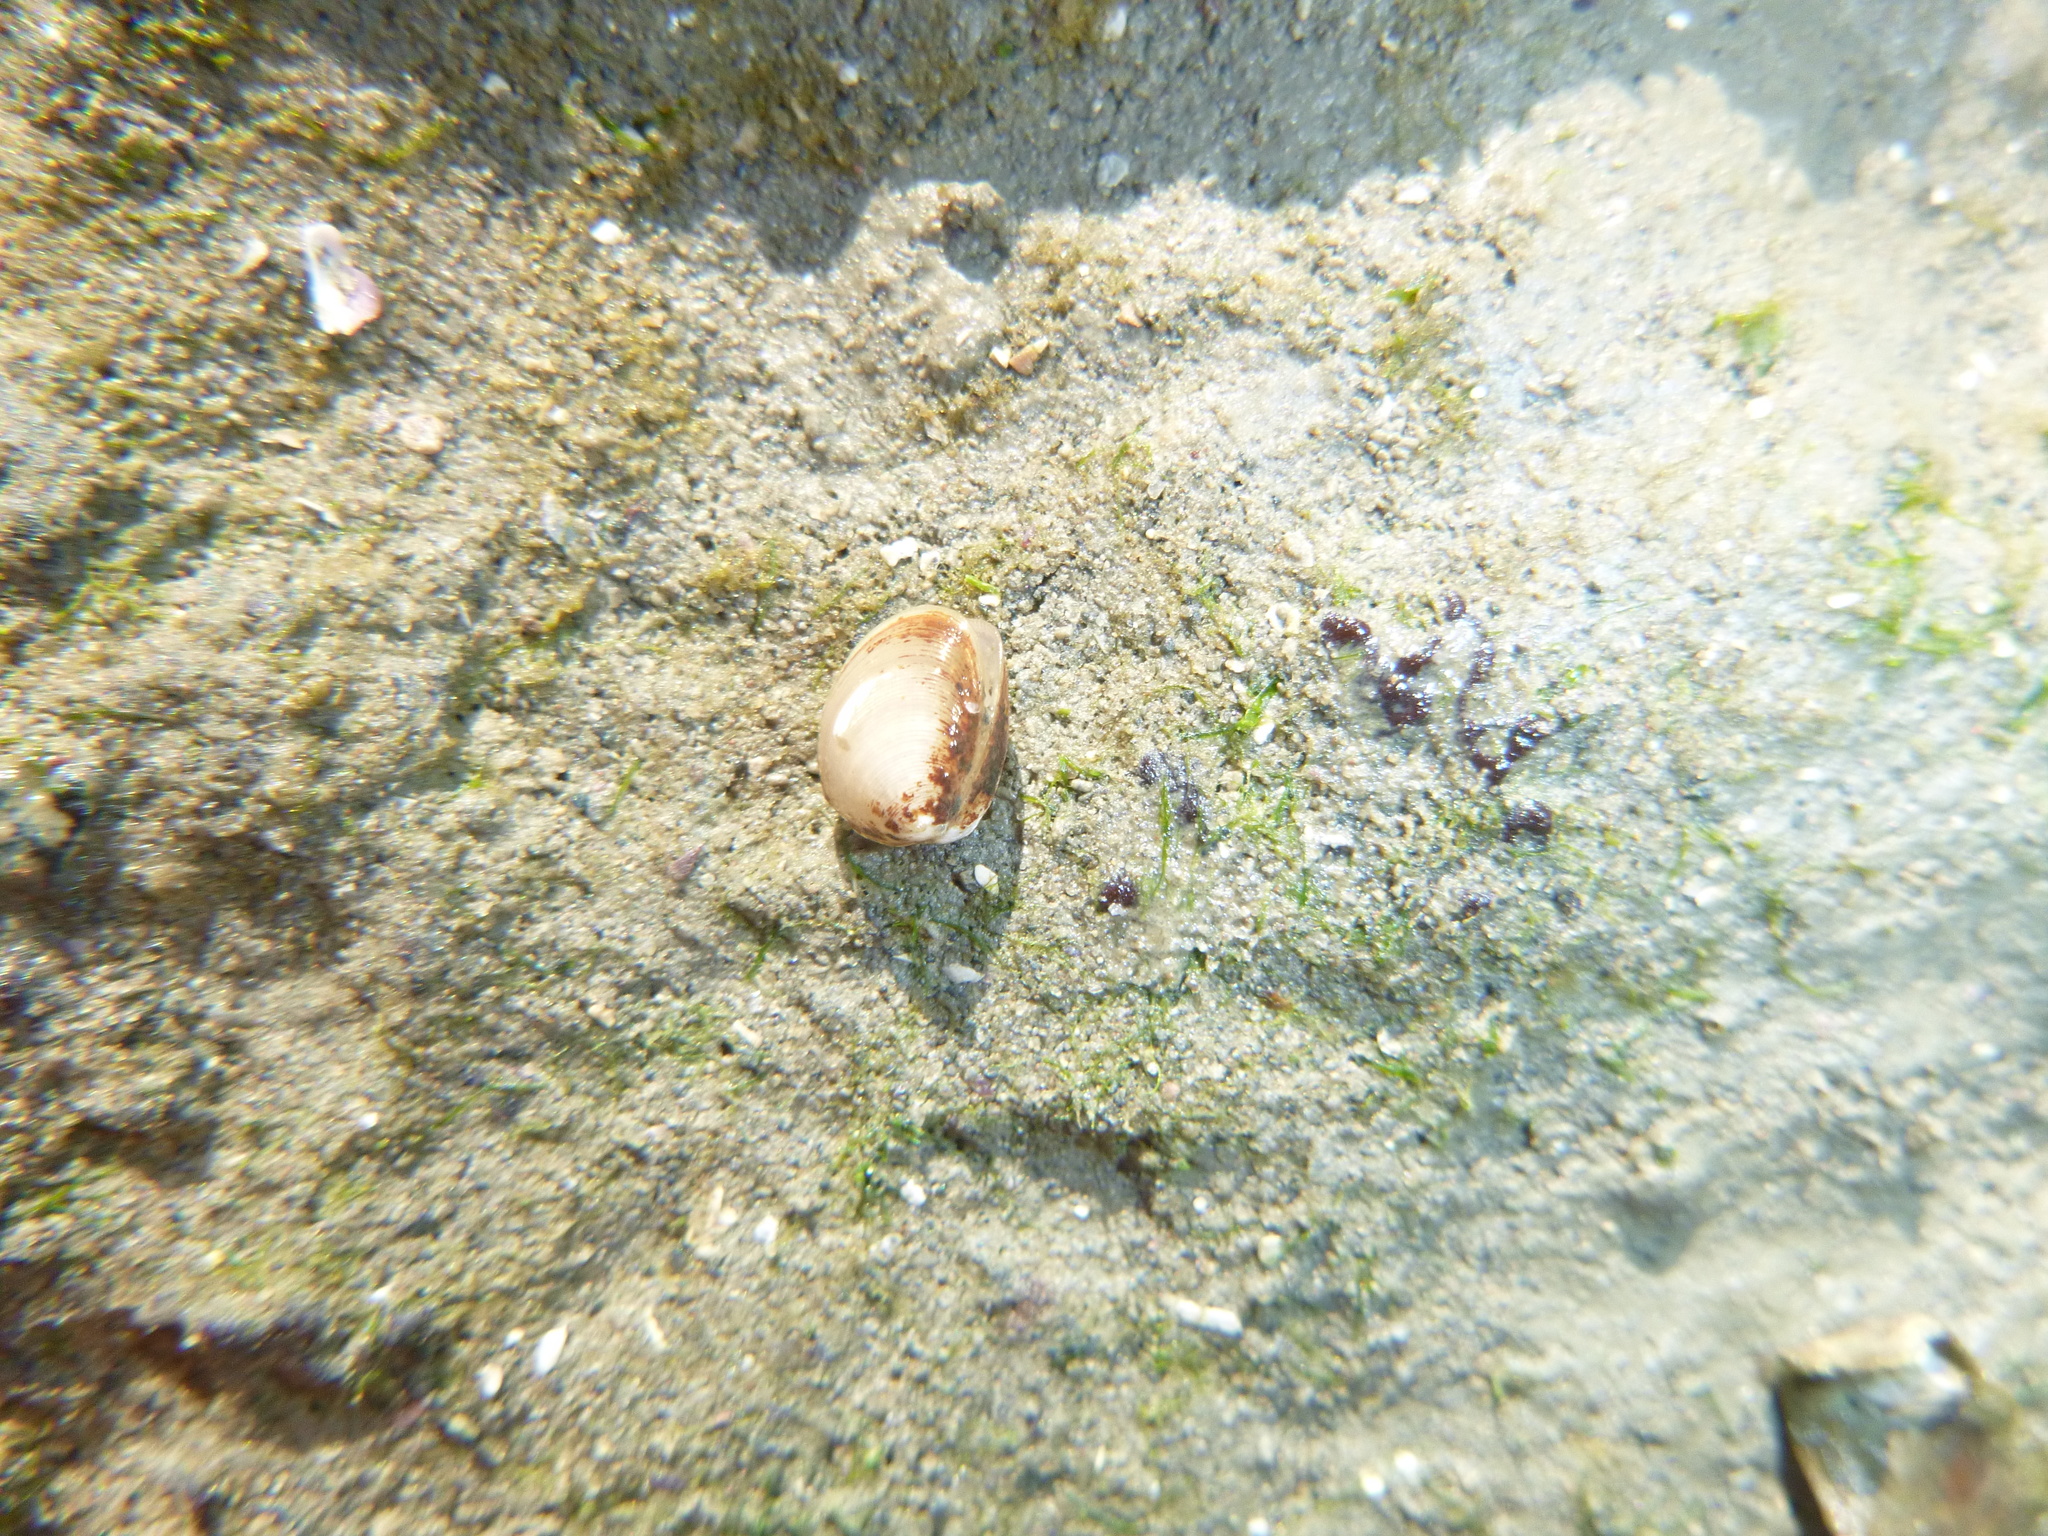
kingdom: Animalia
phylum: Mollusca
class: Bivalvia
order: Nuculida
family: Nuculidae
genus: Linucula
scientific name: Linucula hartvigiana
